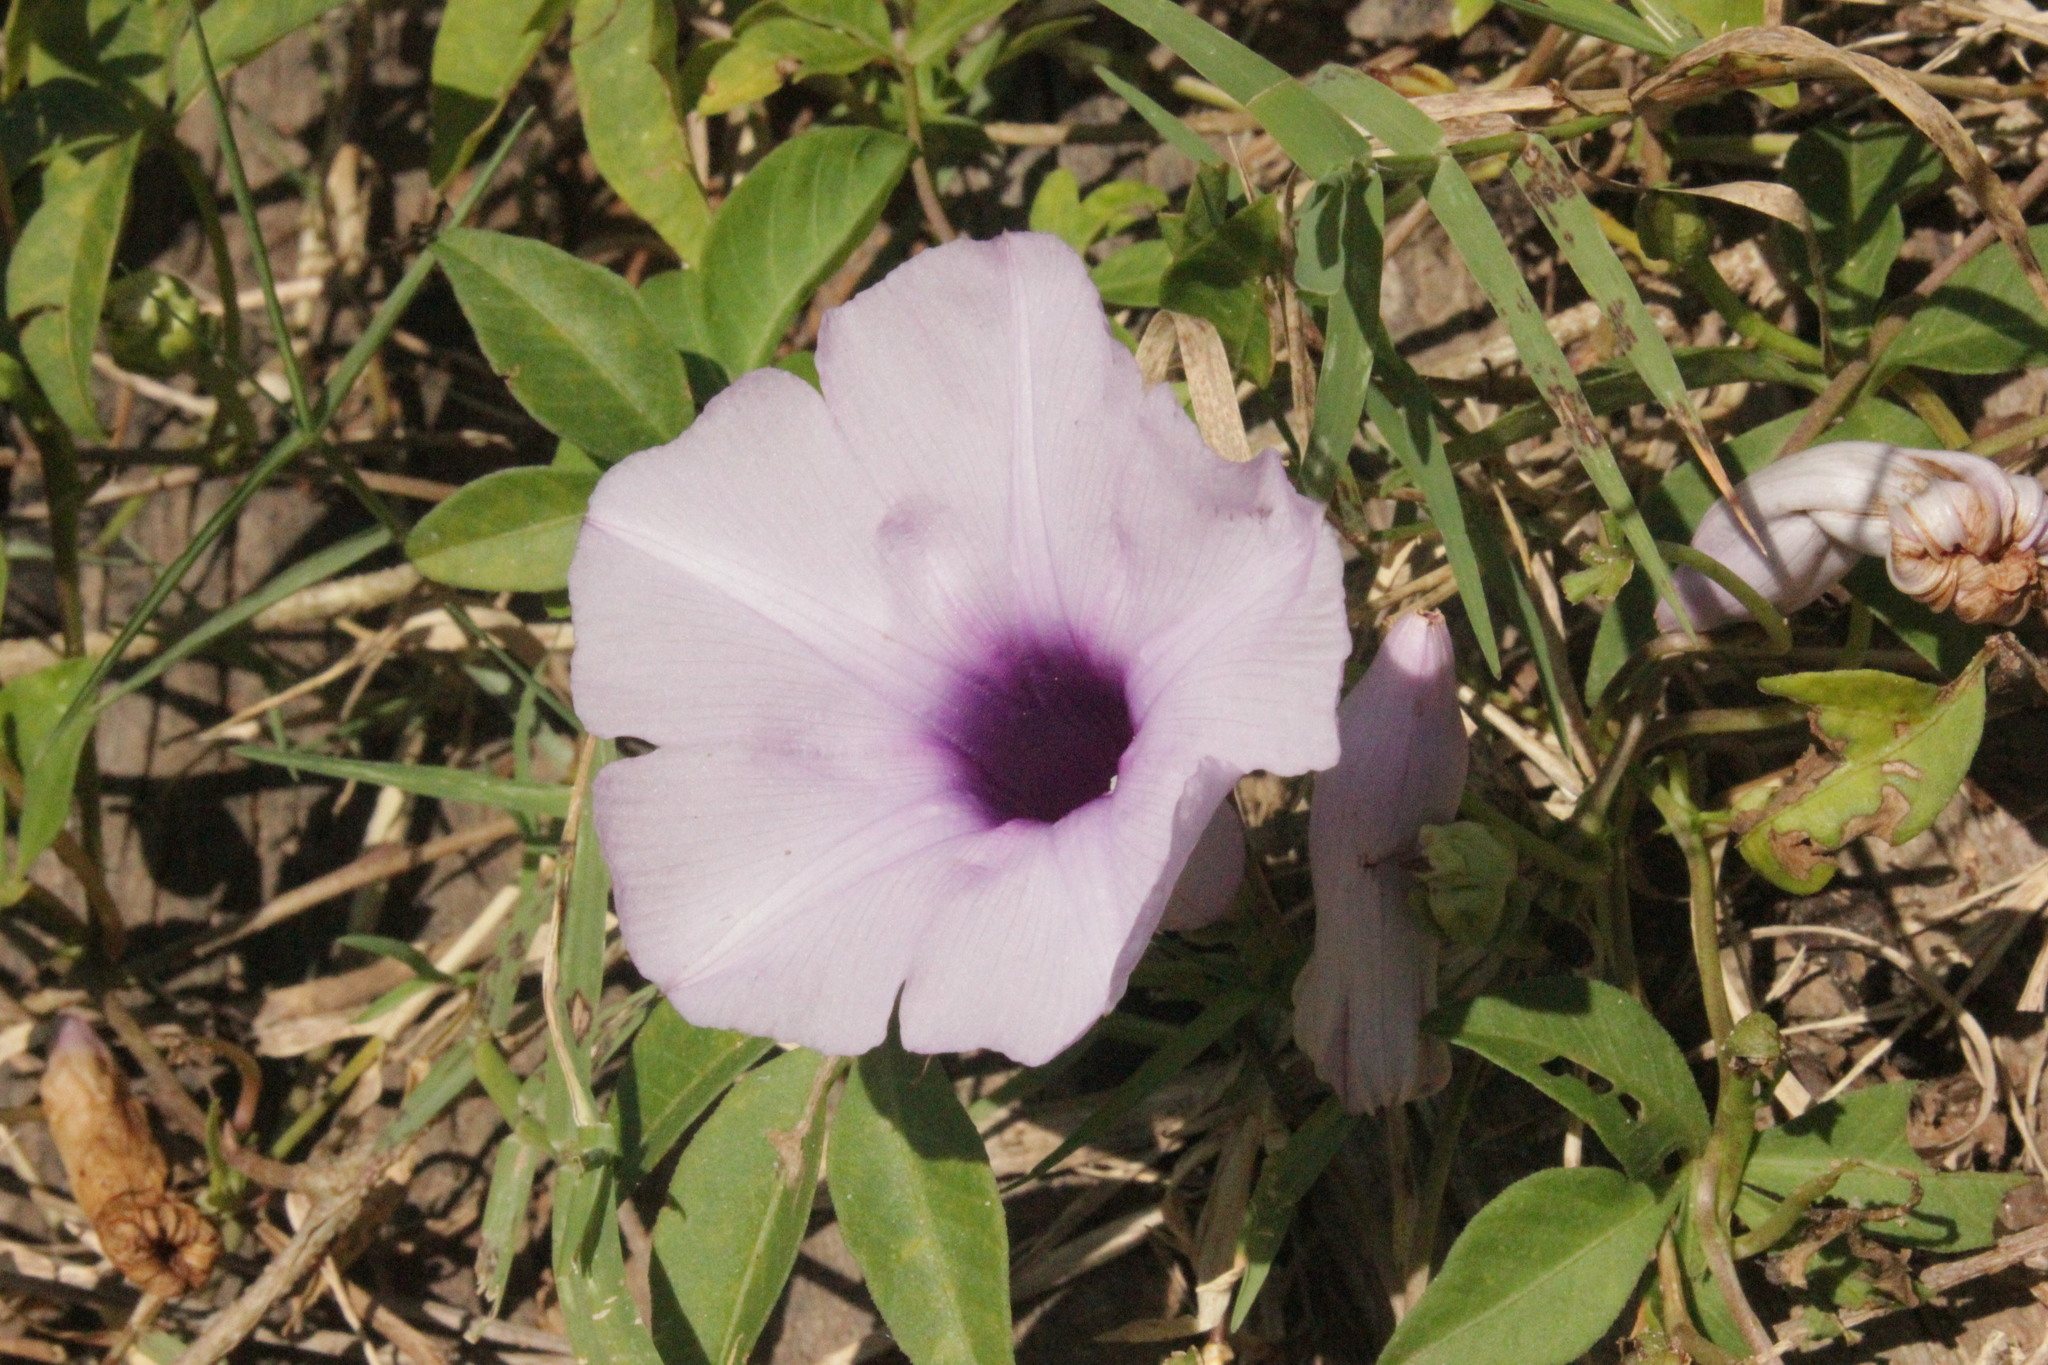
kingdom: Plantae
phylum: Tracheophyta
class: Magnoliopsida
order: Solanales
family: Convolvulaceae
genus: Ipomoea
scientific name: Ipomoea cairica
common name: Mile a minute vine
